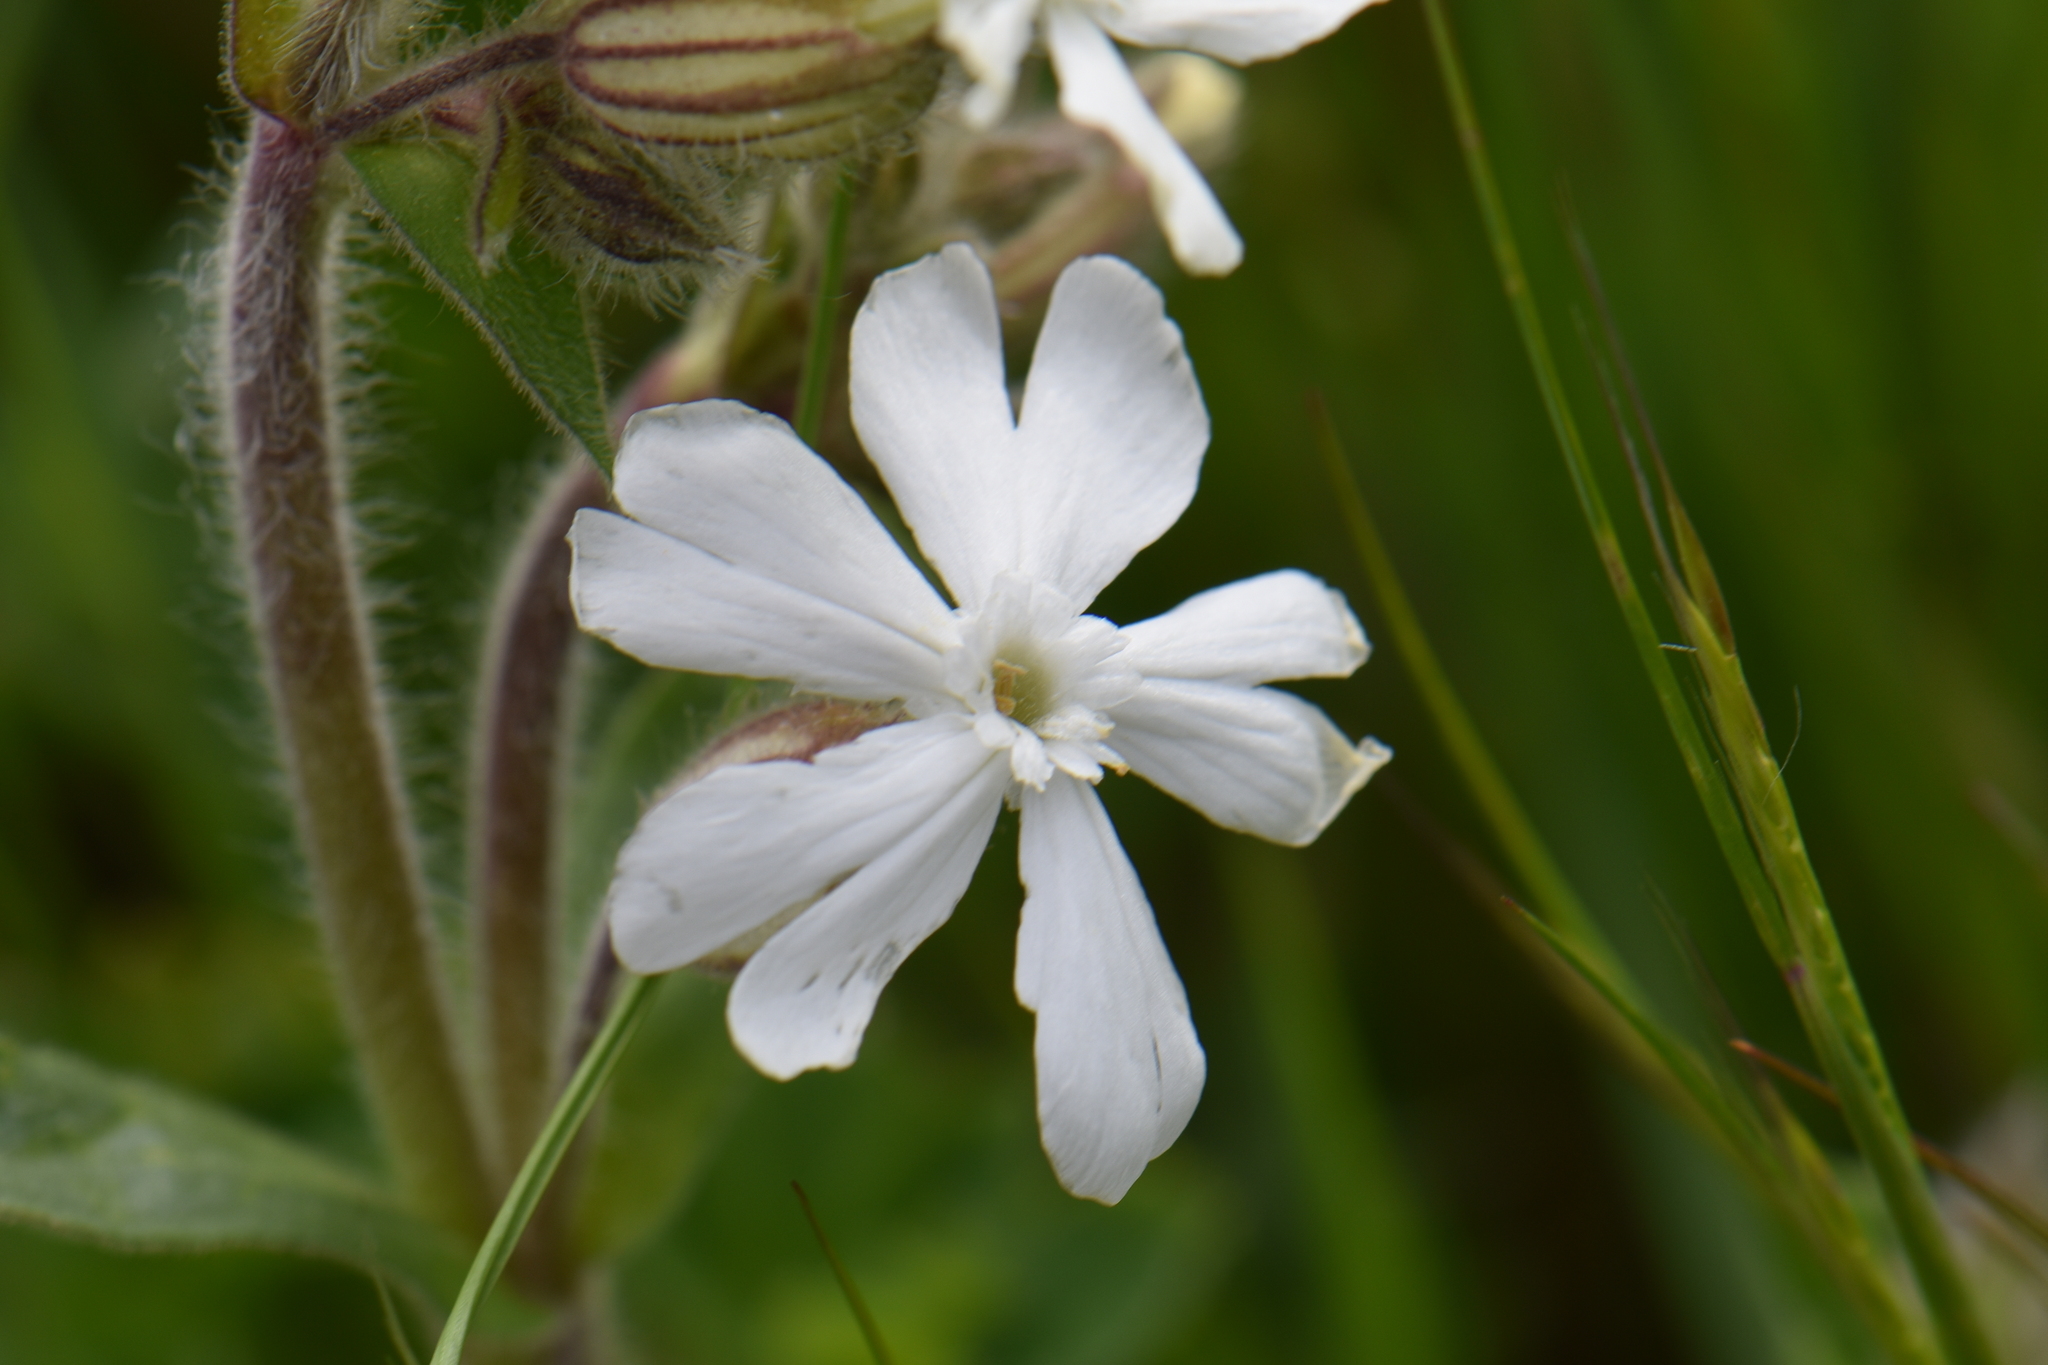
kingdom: Plantae
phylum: Tracheophyta
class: Magnoliopsida
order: Caryophyllales
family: Caryophyllaceae
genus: Silene
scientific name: Silene latifolia
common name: White campion
